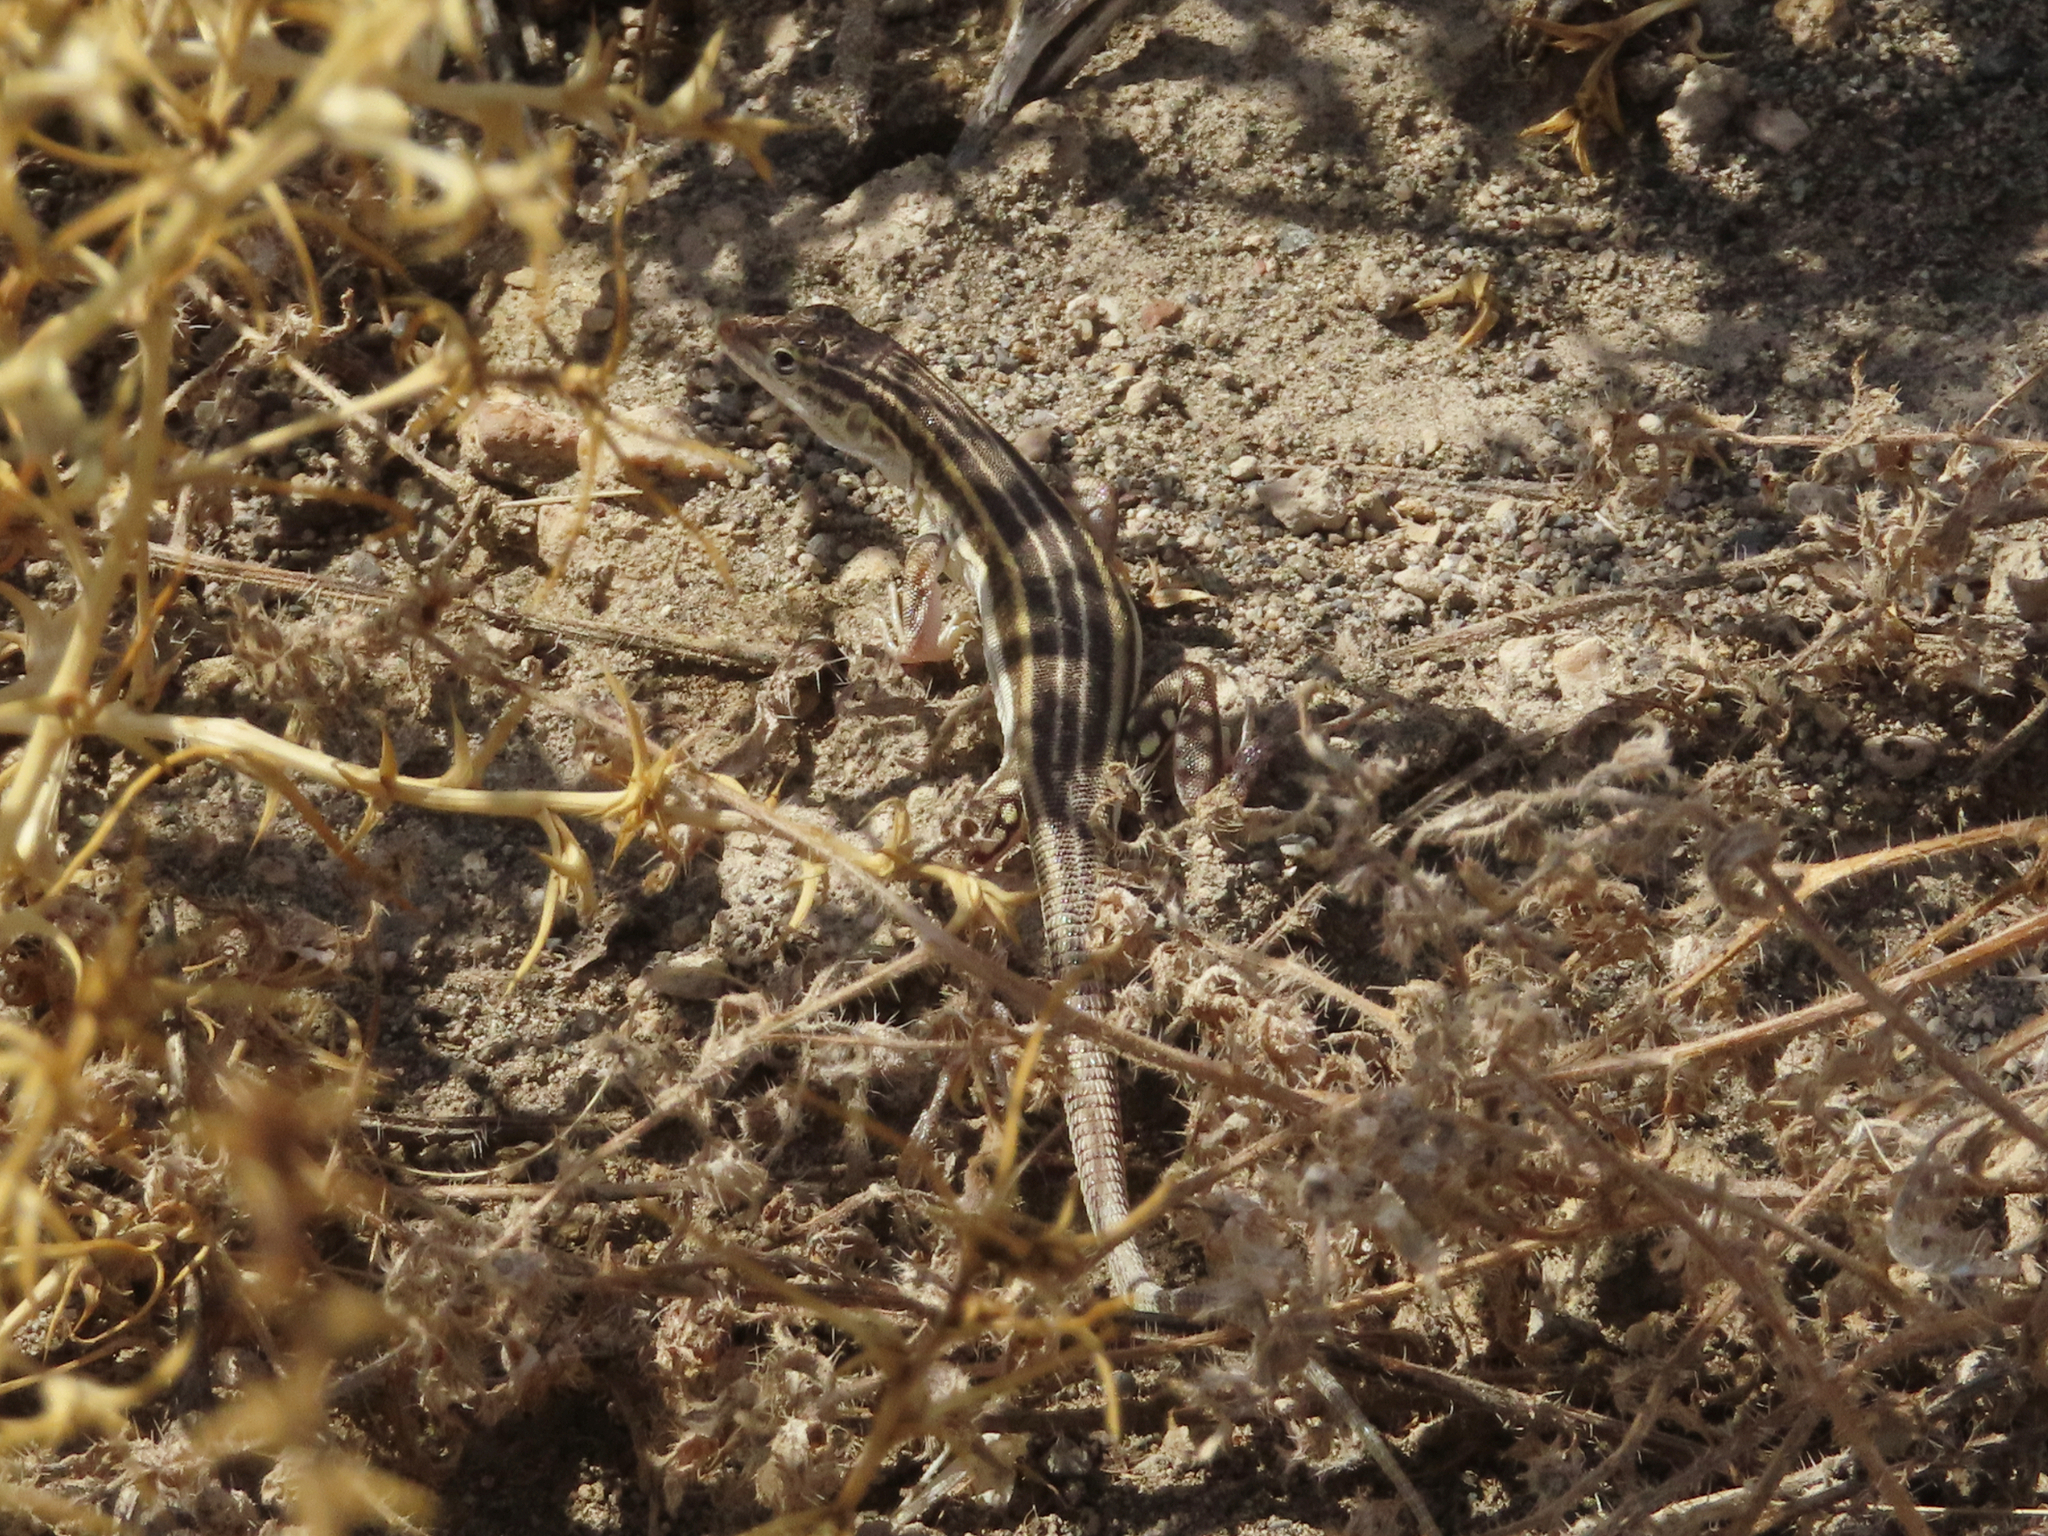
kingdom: Animalia
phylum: Chordata
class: Squamata
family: Lacertidae
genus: Eremias
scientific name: Eremias pleskei
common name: Pleske's racerunner
